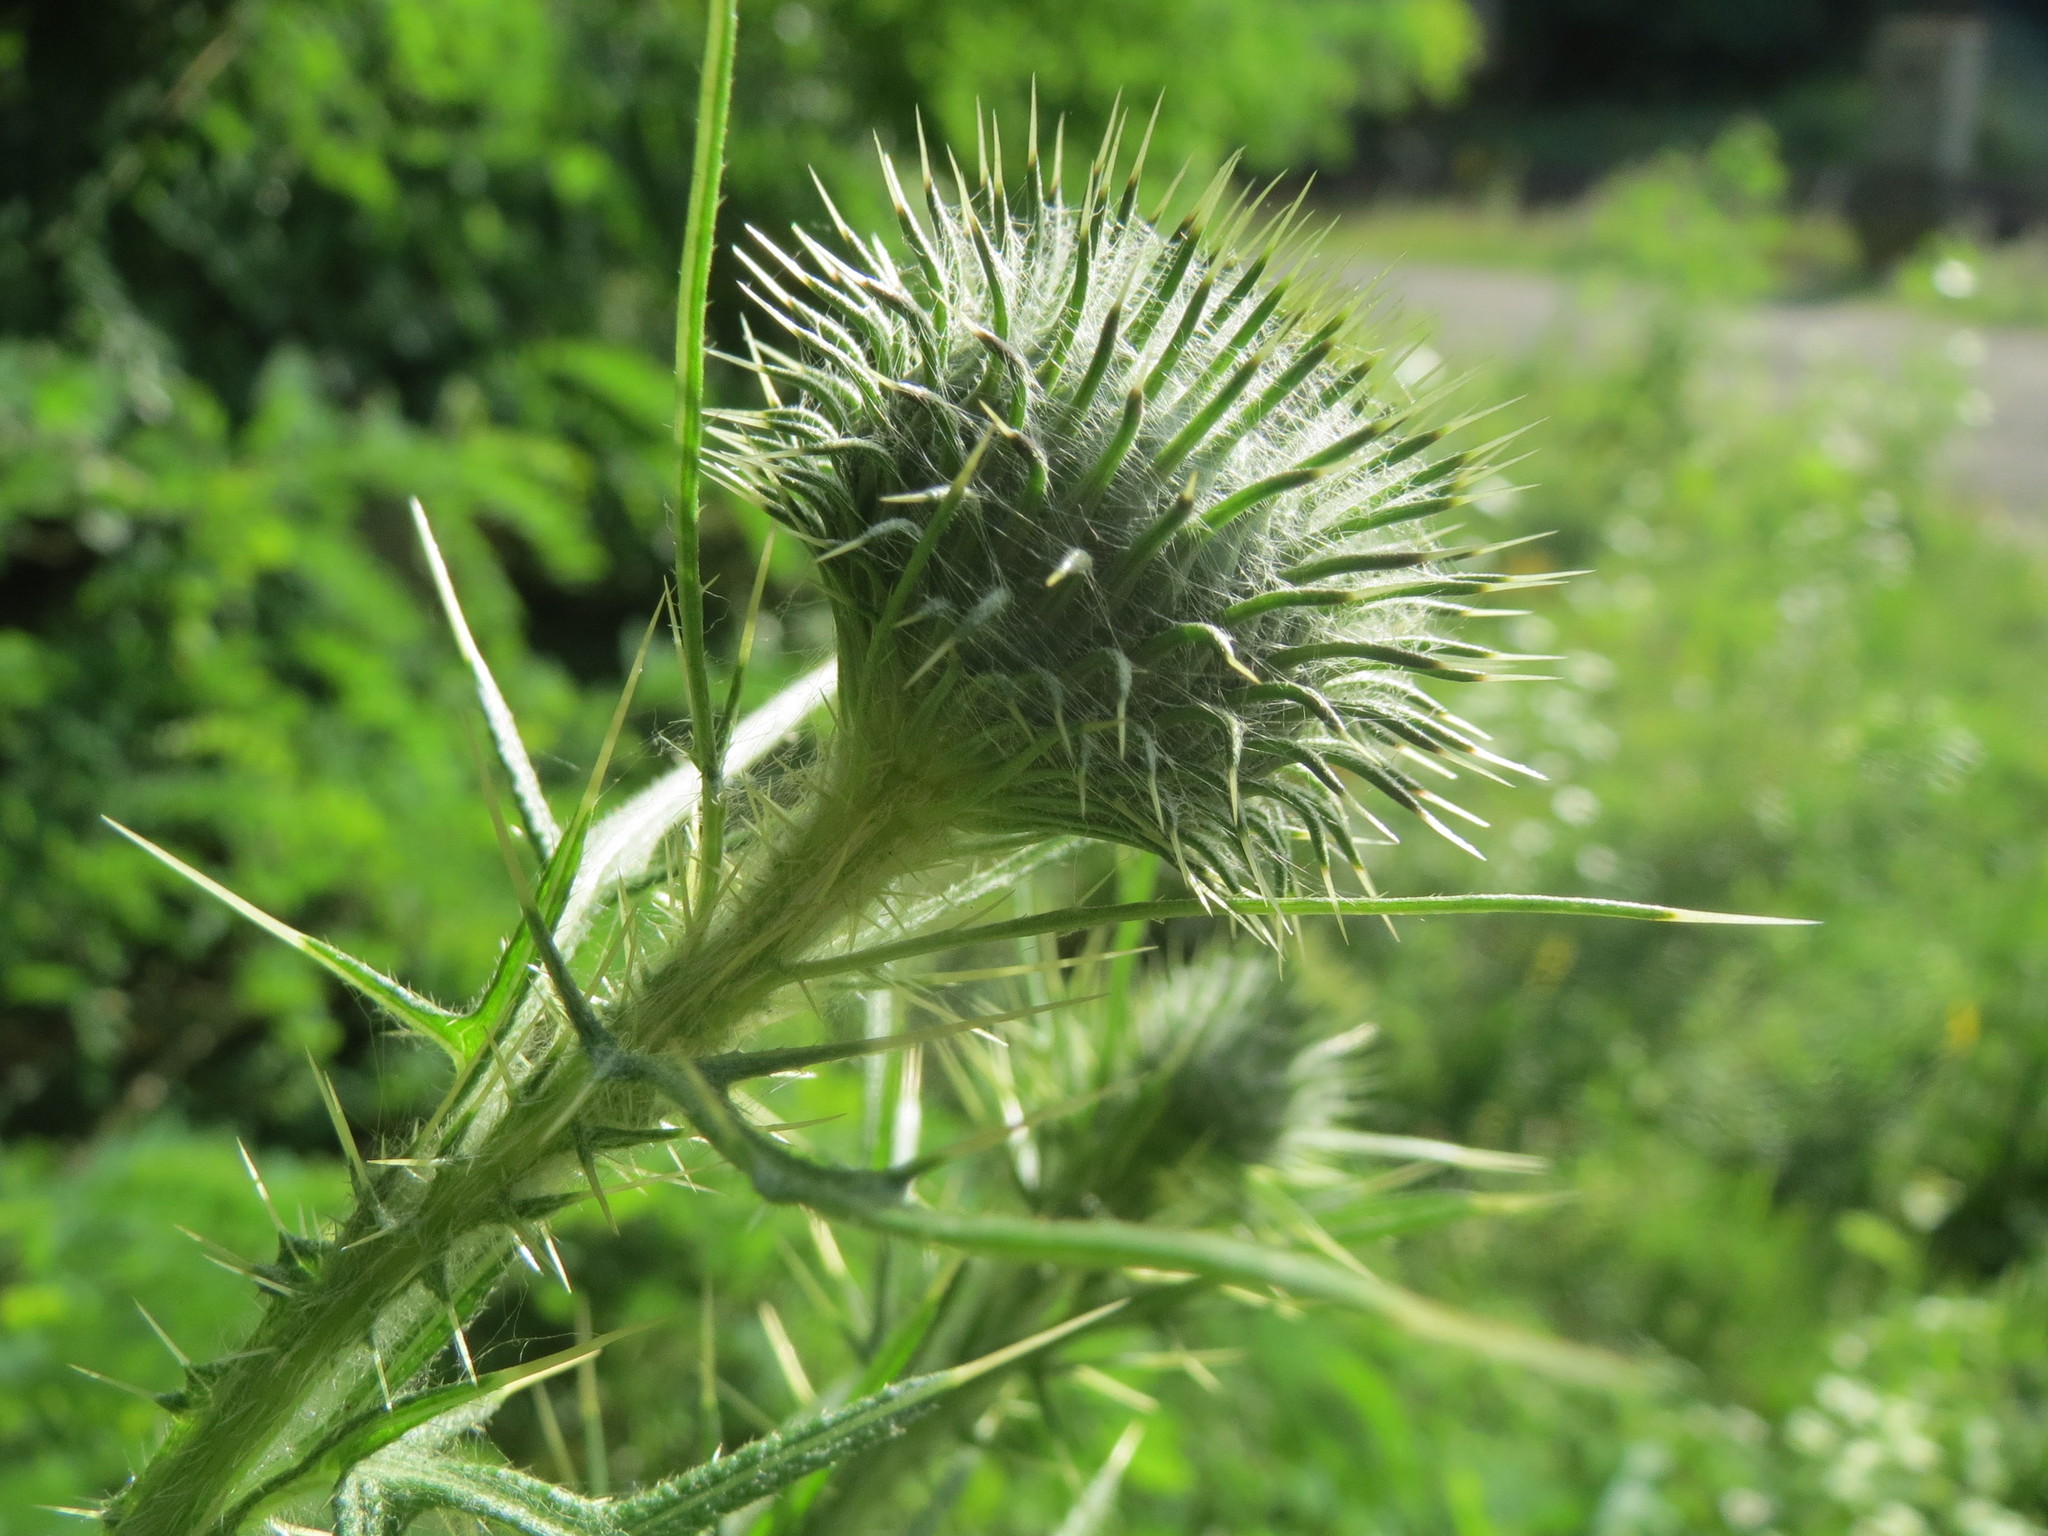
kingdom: Plantae
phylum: Tracheophyta
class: Magnoliopsida
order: Asterales
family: Asteraceae
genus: Cirsium
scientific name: Cirsium vulgare
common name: Bull thistle
